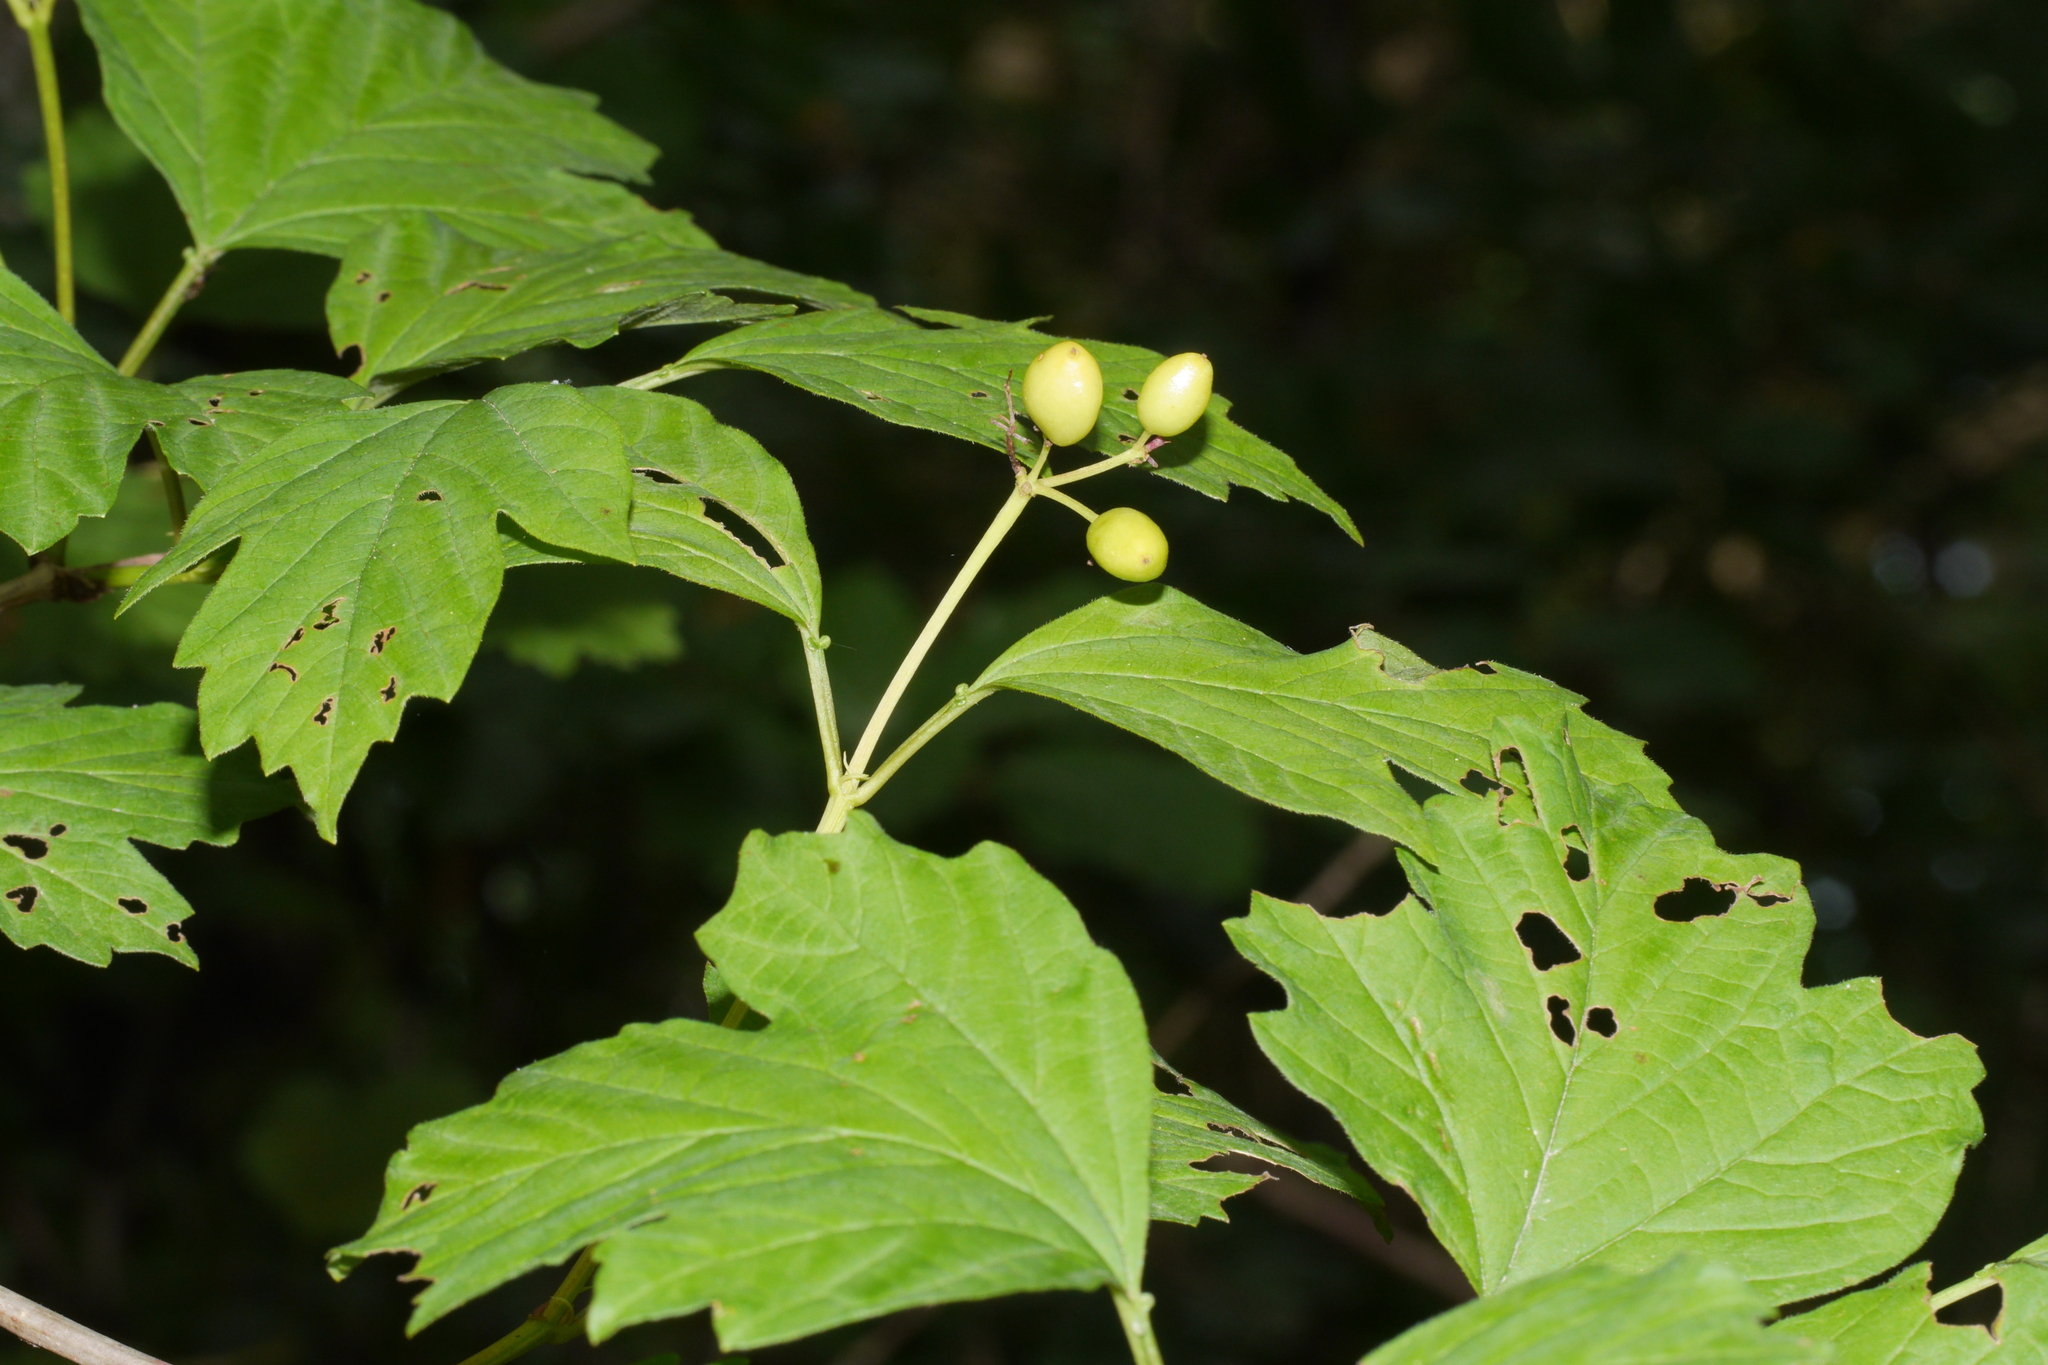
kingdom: Plantae
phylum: Tracheophyta
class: Magnoliopsida
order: Dipsacales
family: Viburnaceae
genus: Viburnum
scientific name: Viburnum opulus
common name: Guelder-rose
